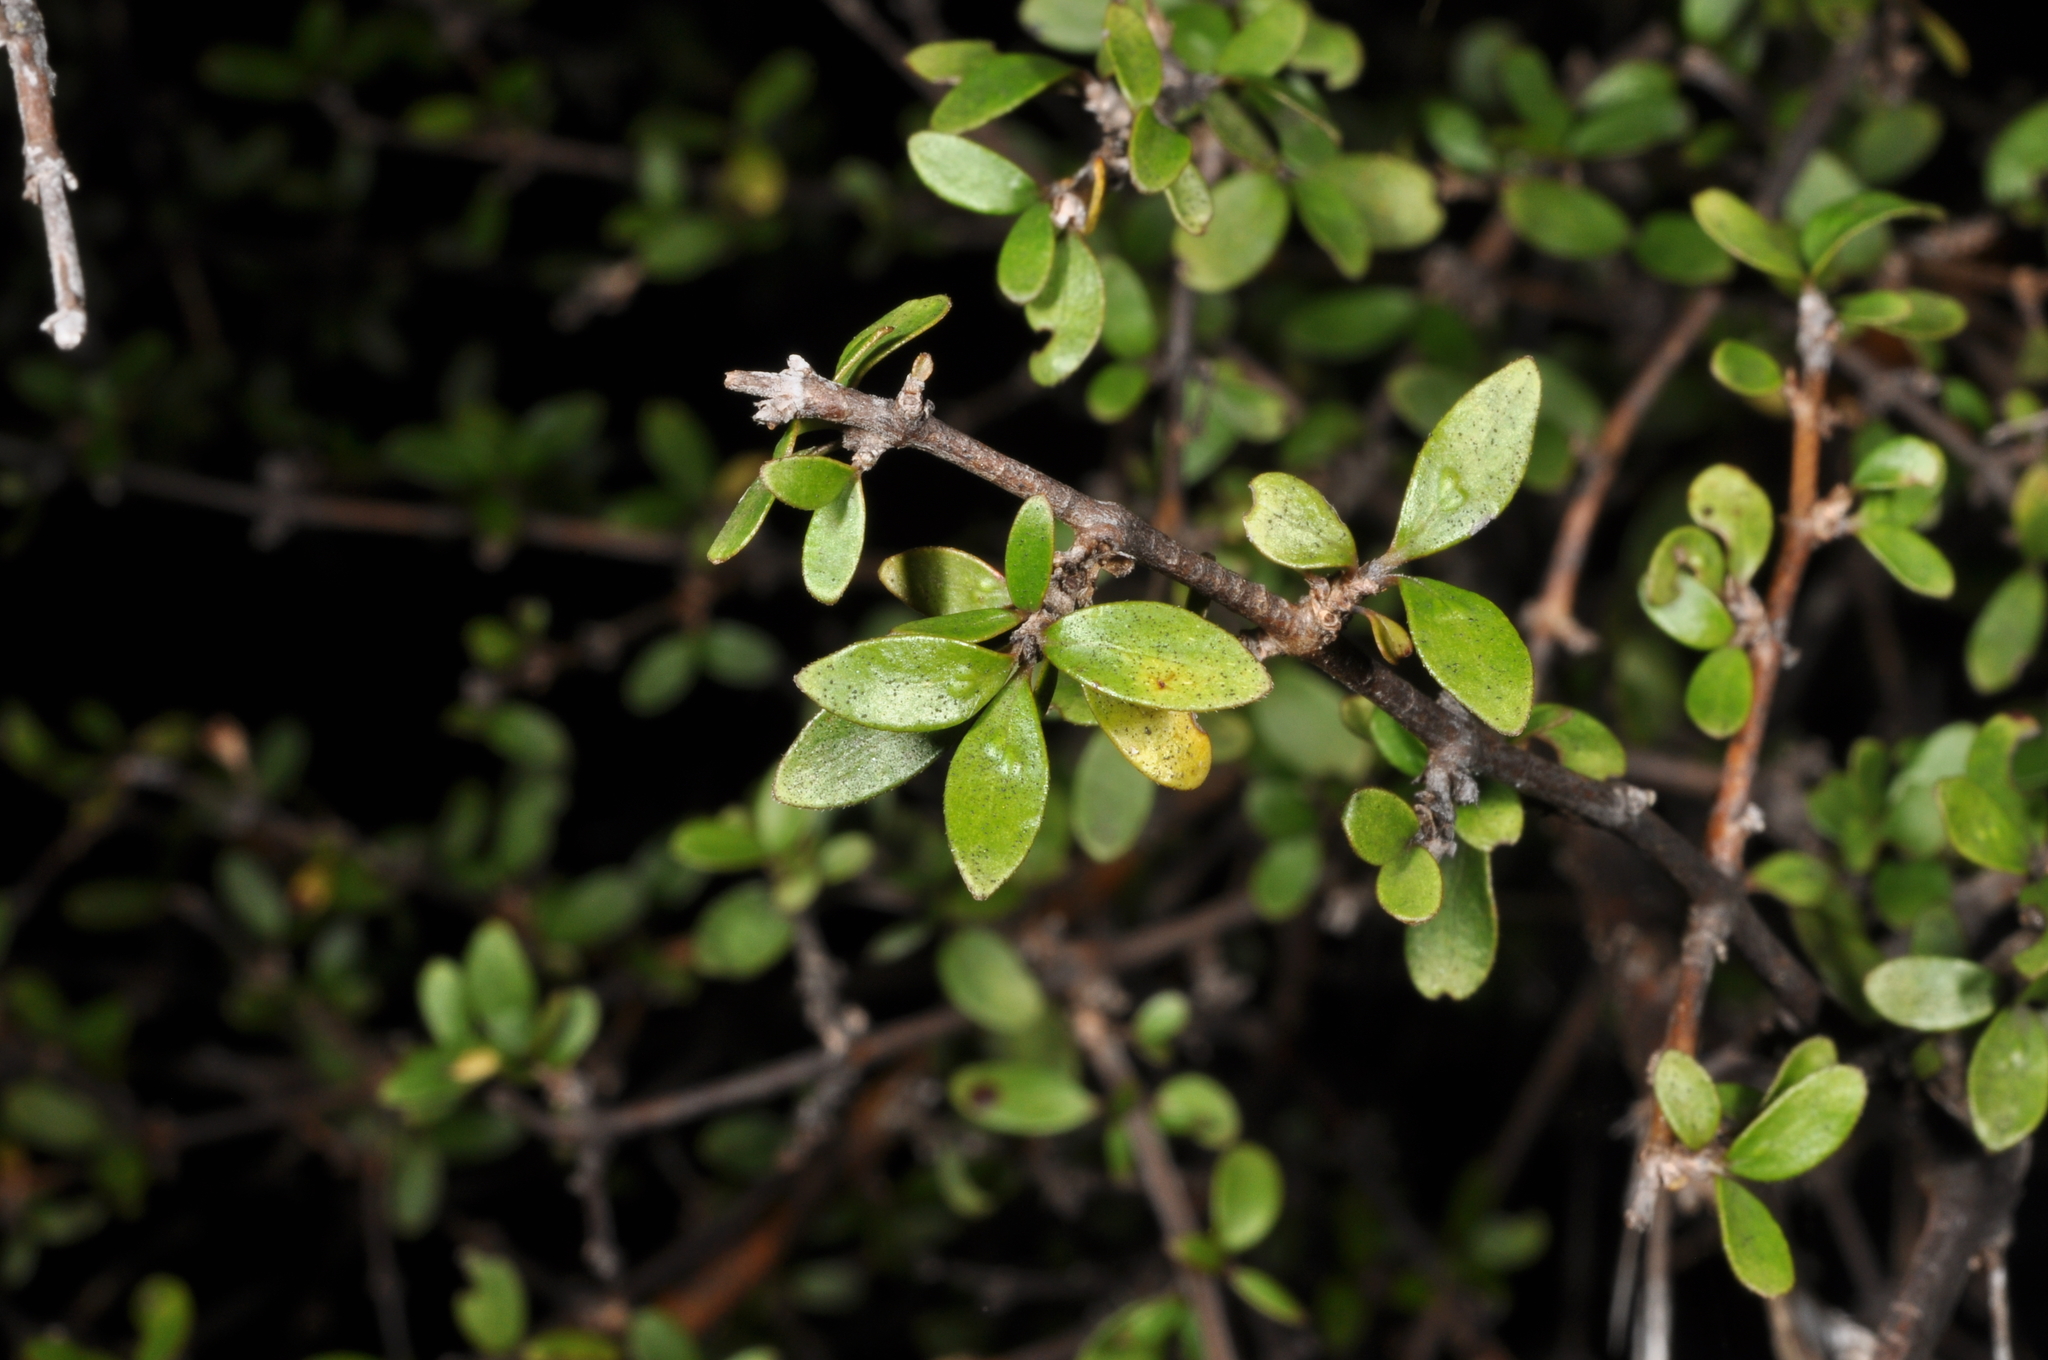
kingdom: Plantae
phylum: Tracheophyta
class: Magnoliopsida
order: Gentianales
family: Rubiaceae
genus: Coprosma
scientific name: Coprosma dumosa
